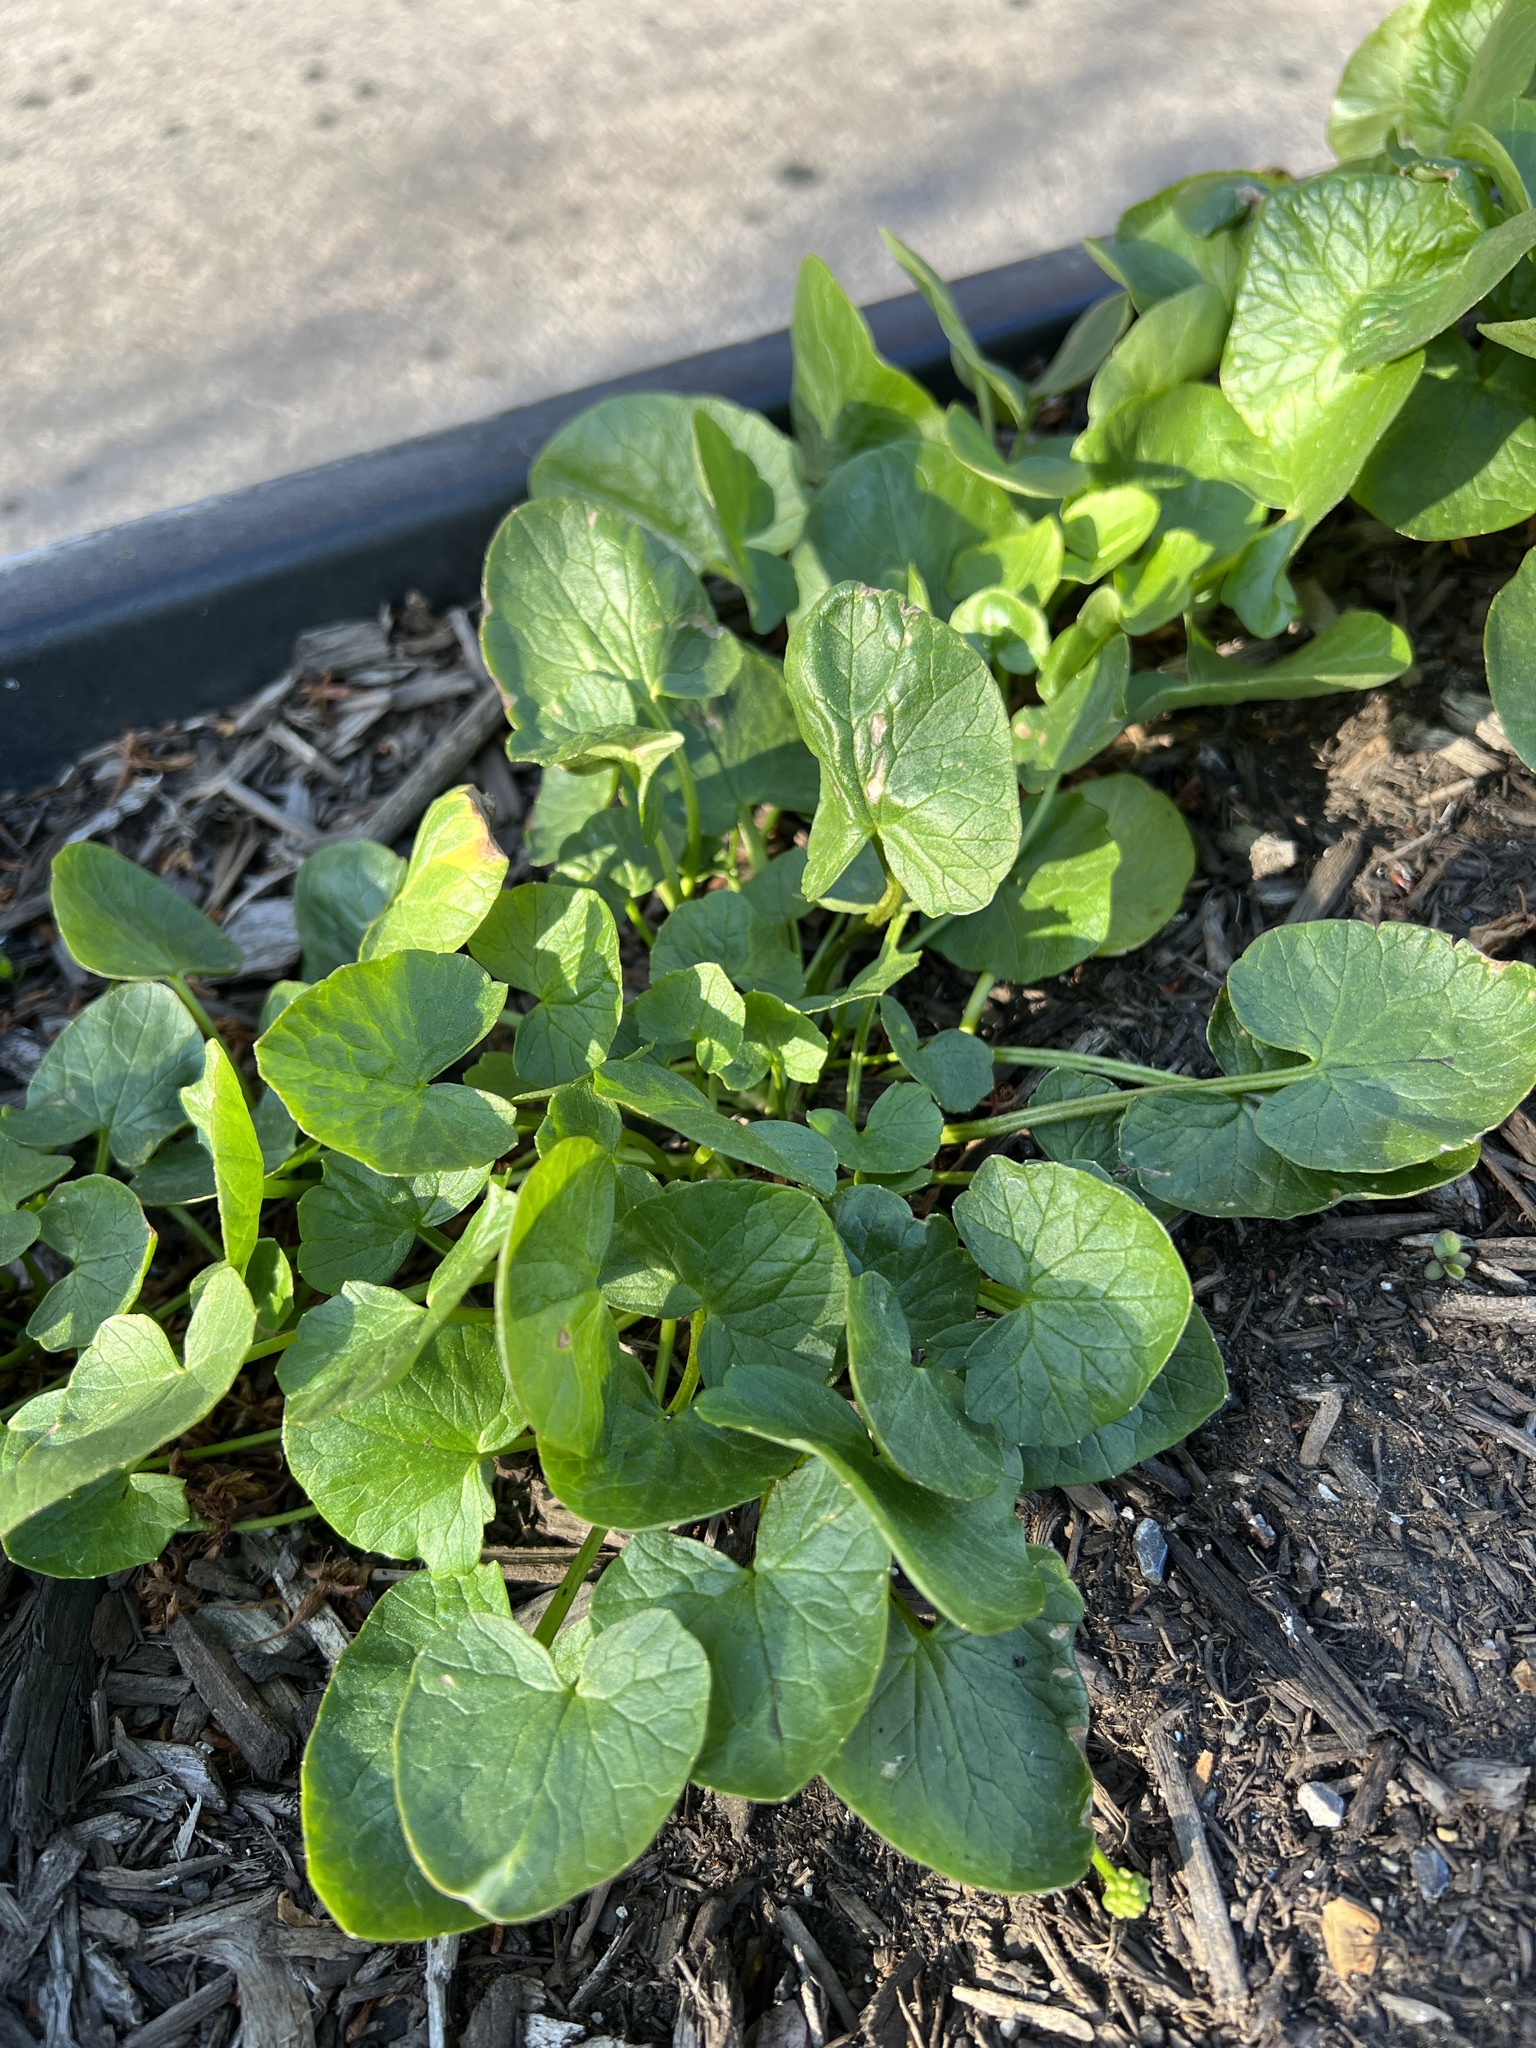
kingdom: Plantae
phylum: Tracheophyta
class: Magnoliopsida
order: Ranunculales
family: Ranunculaceae
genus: Ficaria
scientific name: Ficaria verna
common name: Lesser celandine
